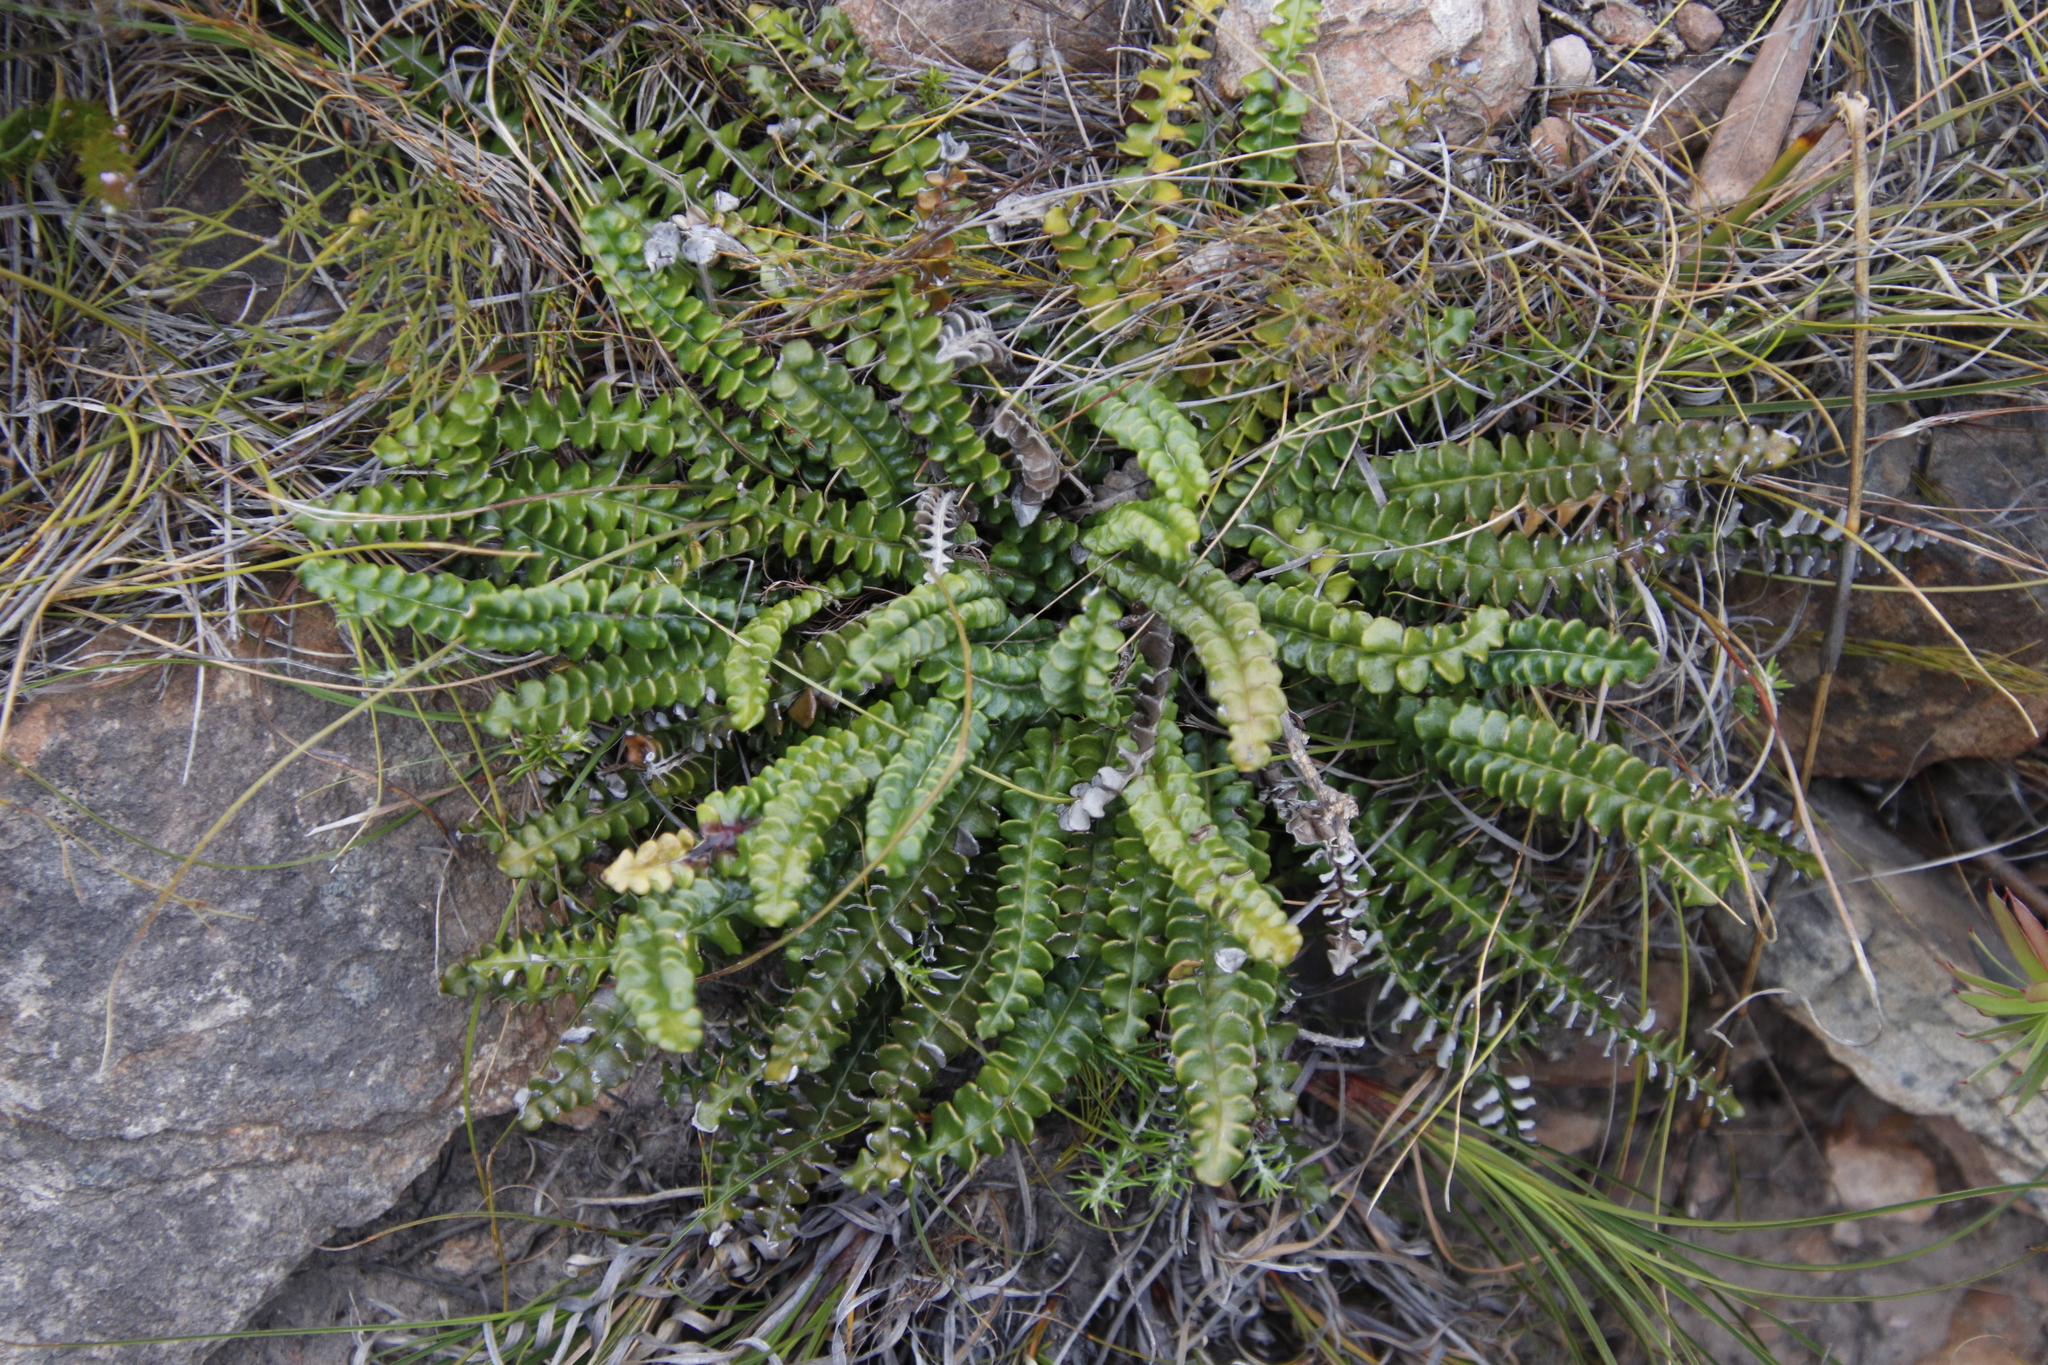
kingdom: Plantae
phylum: Tracheophyta
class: Magnoliopsida
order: Asterales
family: Asteraceae
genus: Gerbera
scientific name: Gerbera linnaei
